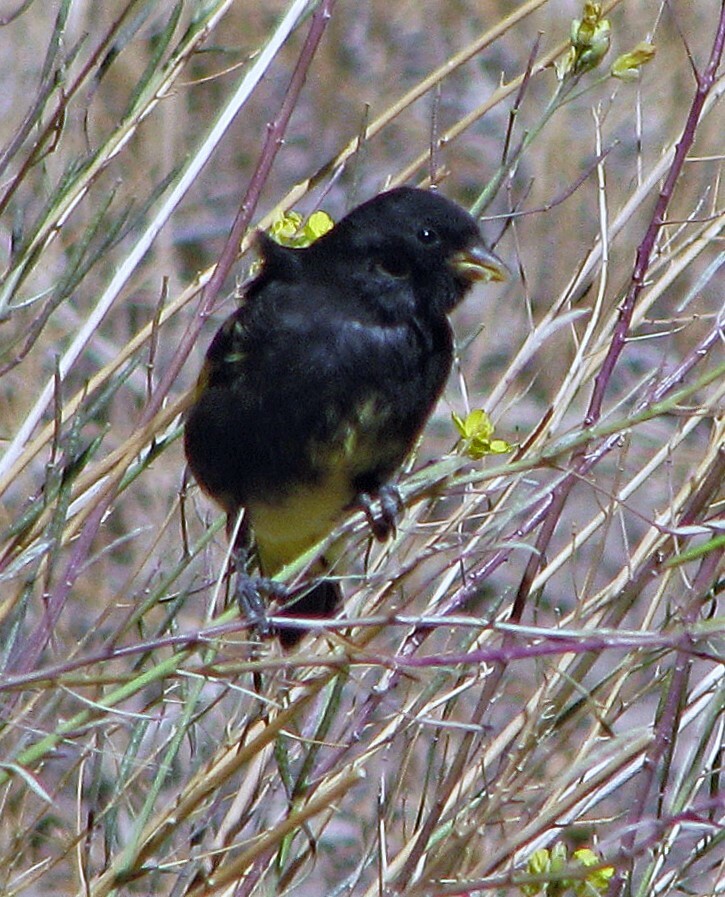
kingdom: Animalia
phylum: Chordata
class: Aves
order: Passeriformes
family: Fringillidae
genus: Spinus
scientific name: Spinus atratus
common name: Black siskin
